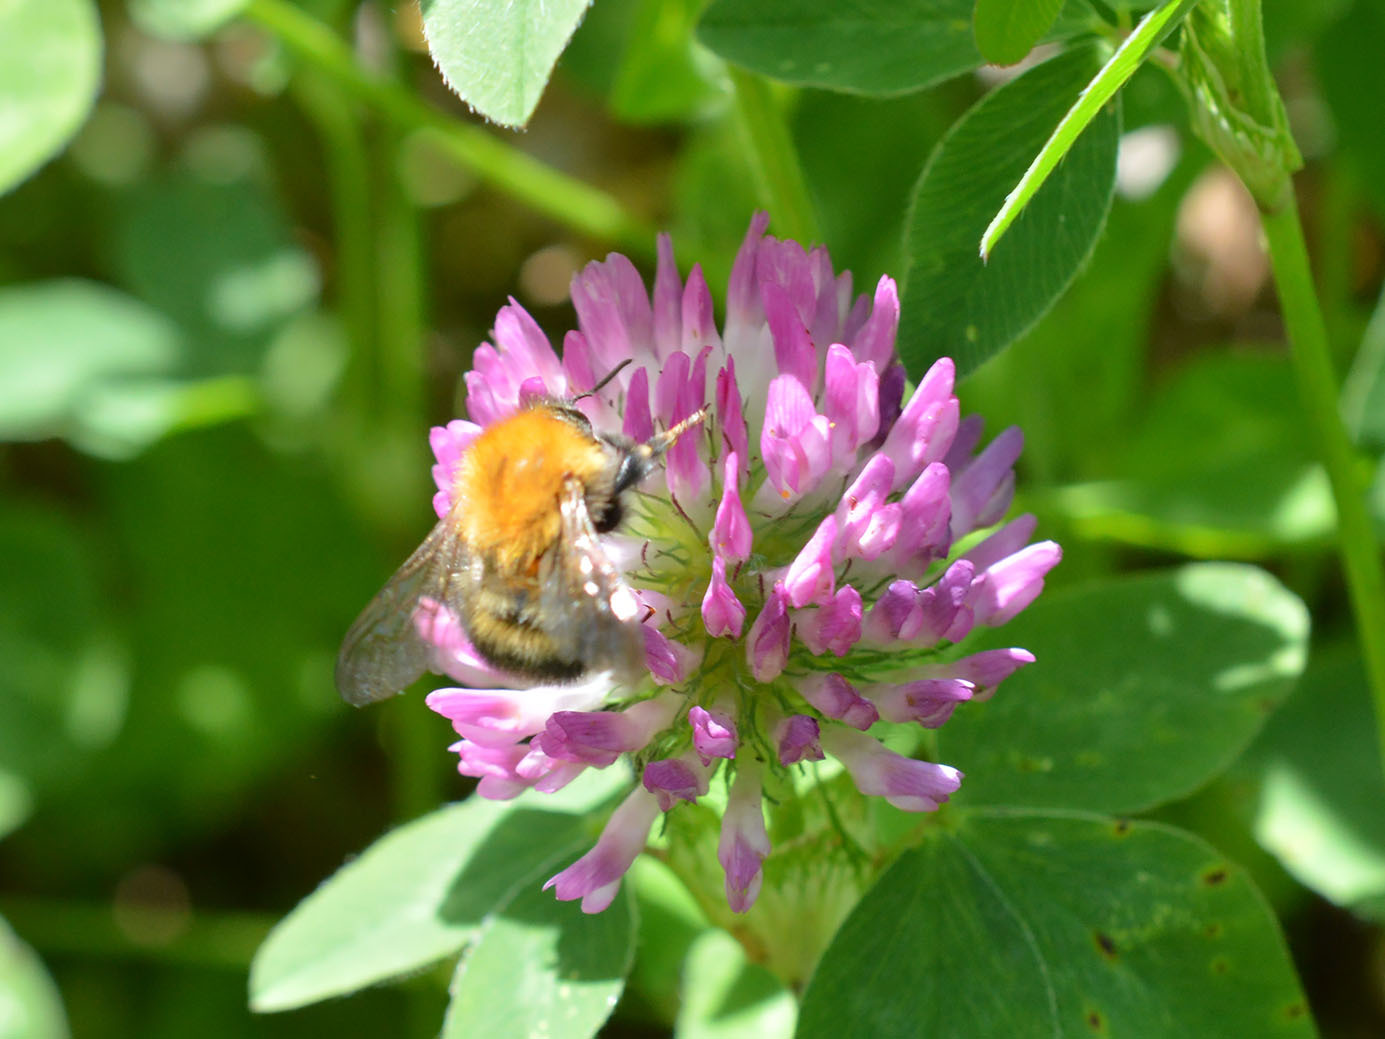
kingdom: Animalia
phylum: Arthropoda
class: Insecta
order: Hymenoptera
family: Apidae
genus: Bombus
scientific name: Bombus pascuorum
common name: Common carder bee
